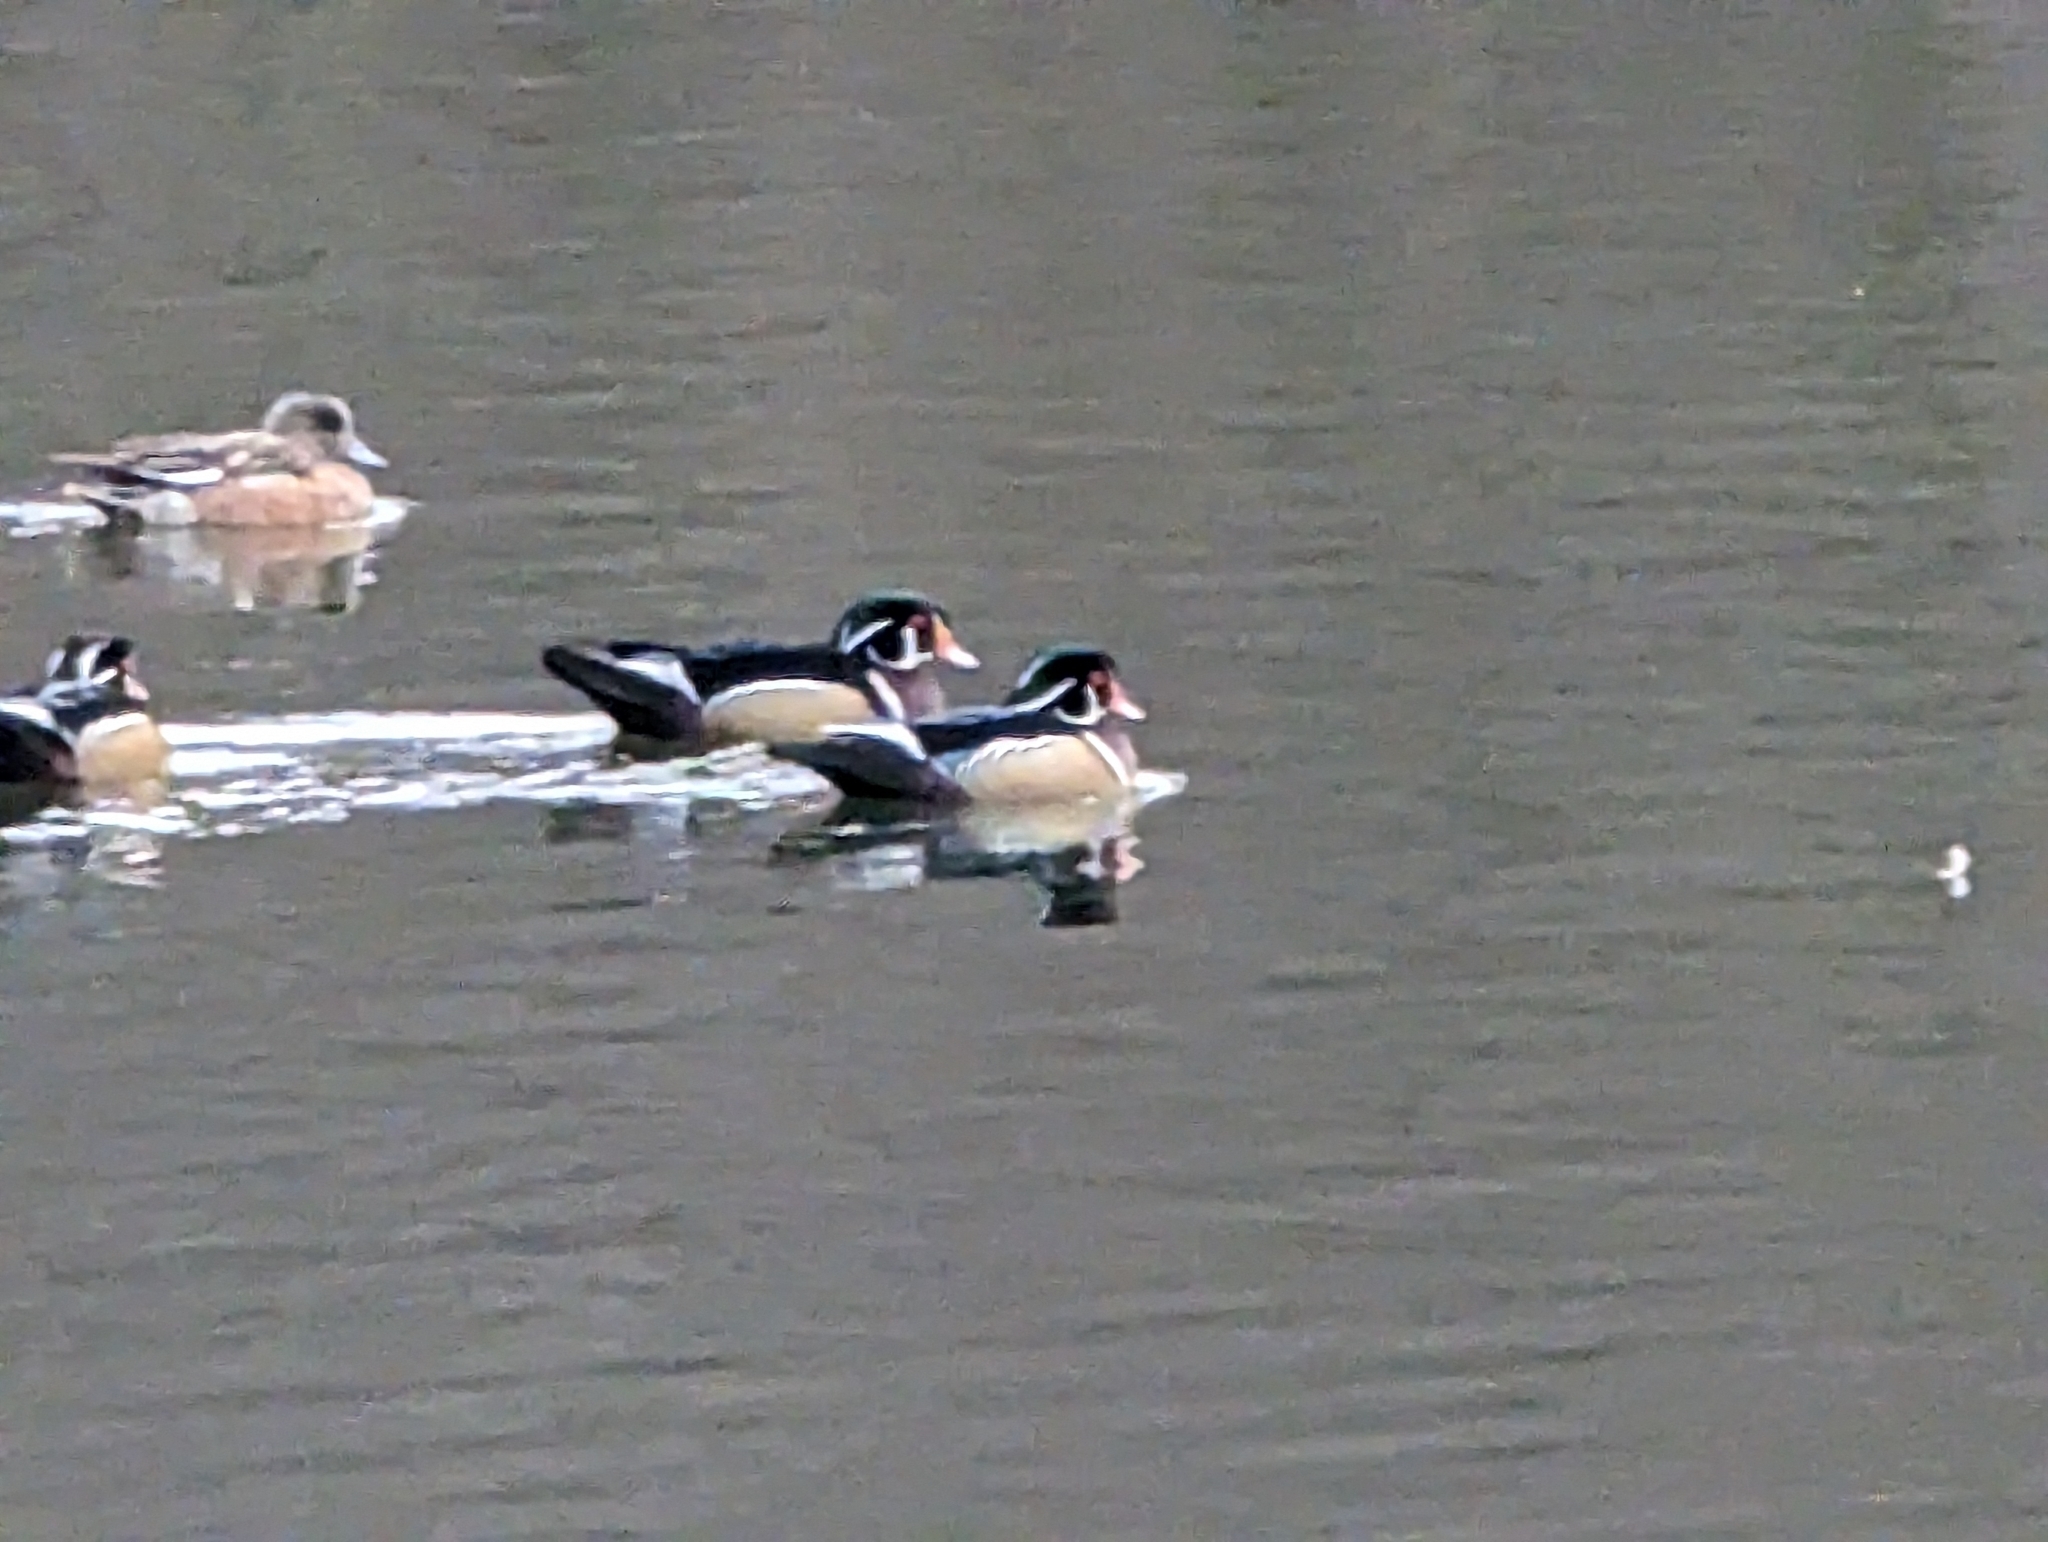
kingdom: Animalia
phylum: Chordata
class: Aves
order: Anseriformes
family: Anatidae
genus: Aix
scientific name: Aix sponsa
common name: Wood duck
